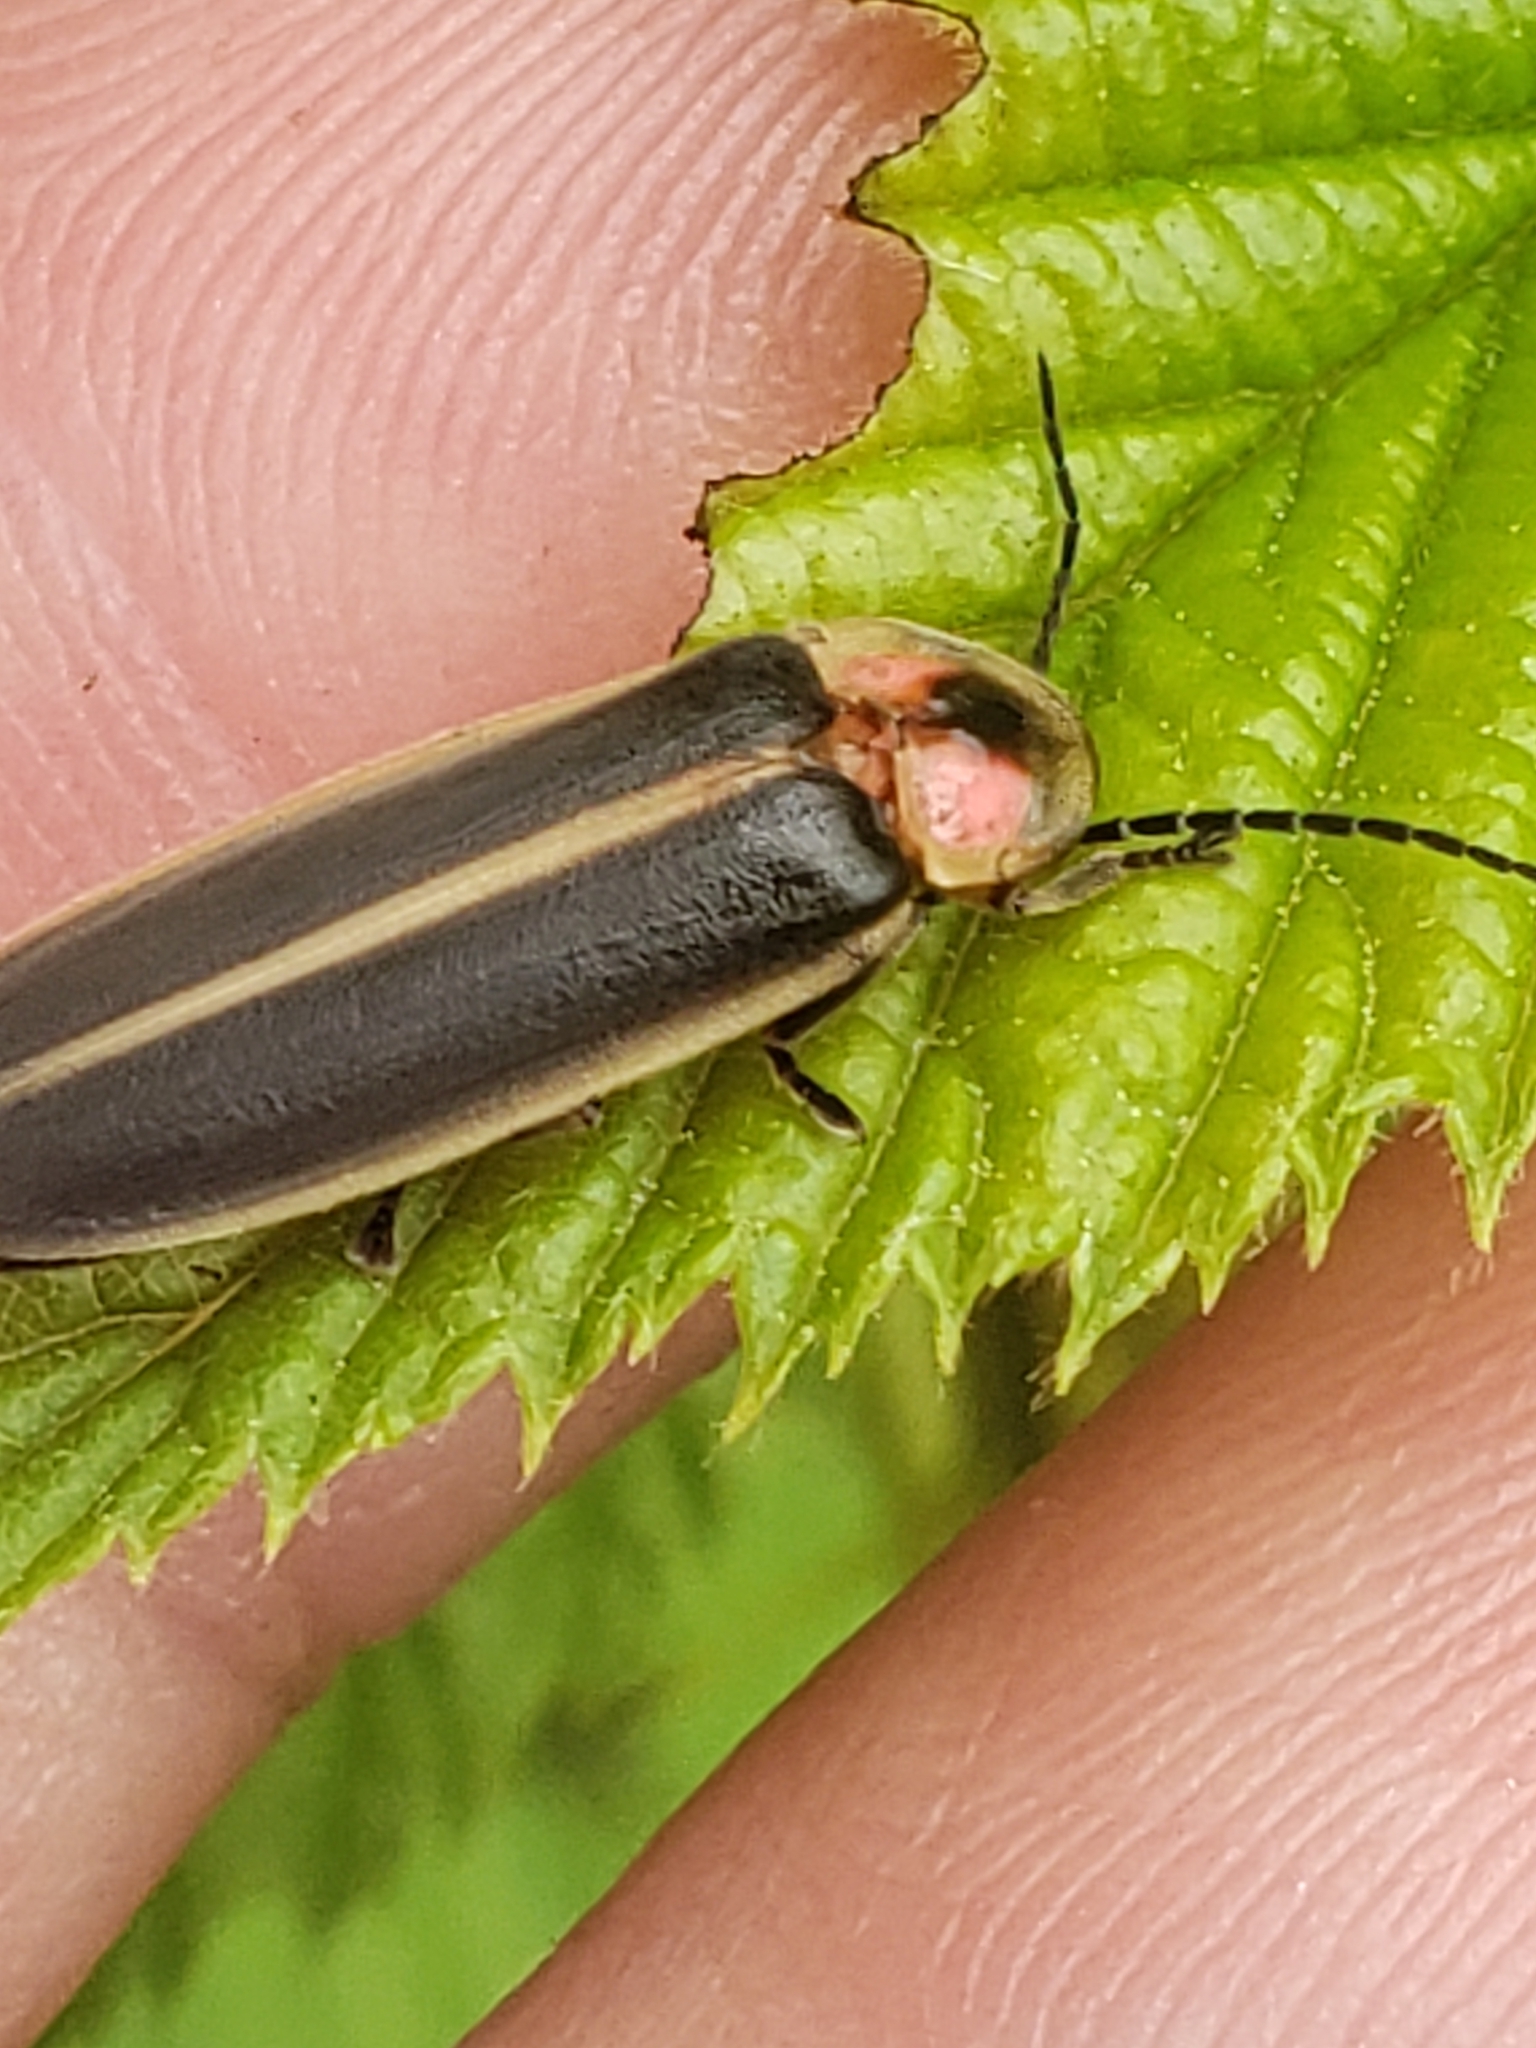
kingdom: Animalia
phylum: Arthropoda
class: Insecta
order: Coleoptera
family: Lampyridae
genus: Photinus
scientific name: Photinus pyralis
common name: Big dipper firefly
